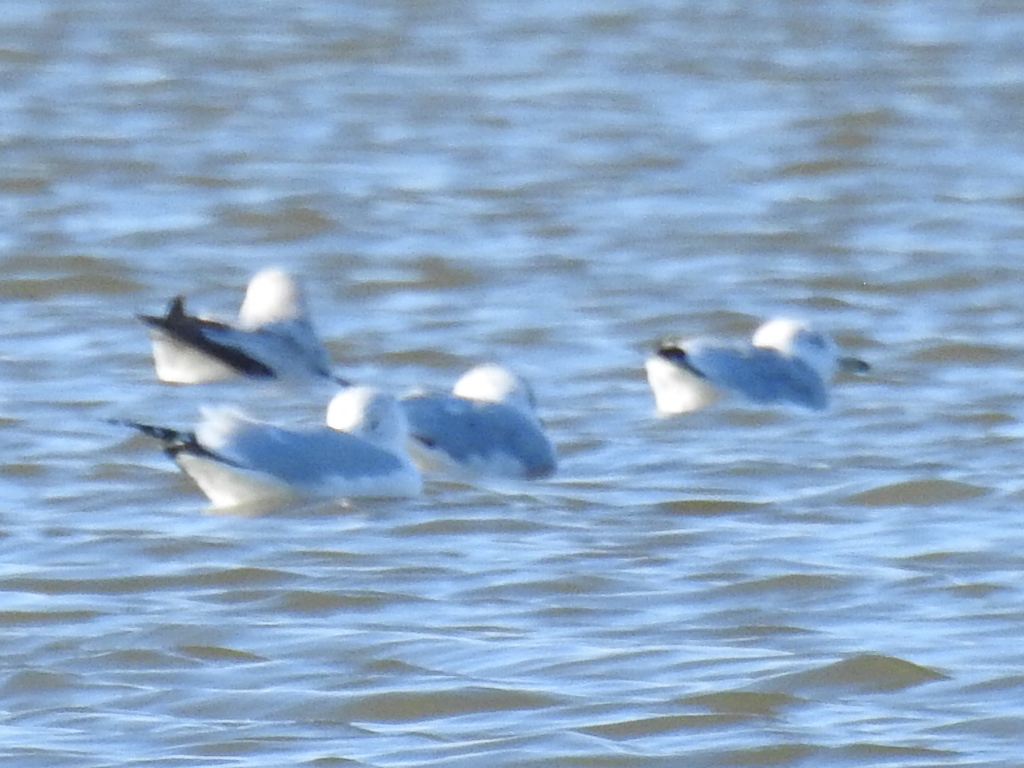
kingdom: Animalia
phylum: Chordata
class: Aves
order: Charadriiformes
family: Laridae
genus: Larus
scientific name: Larus delawarensis
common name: Ring-billed gull
